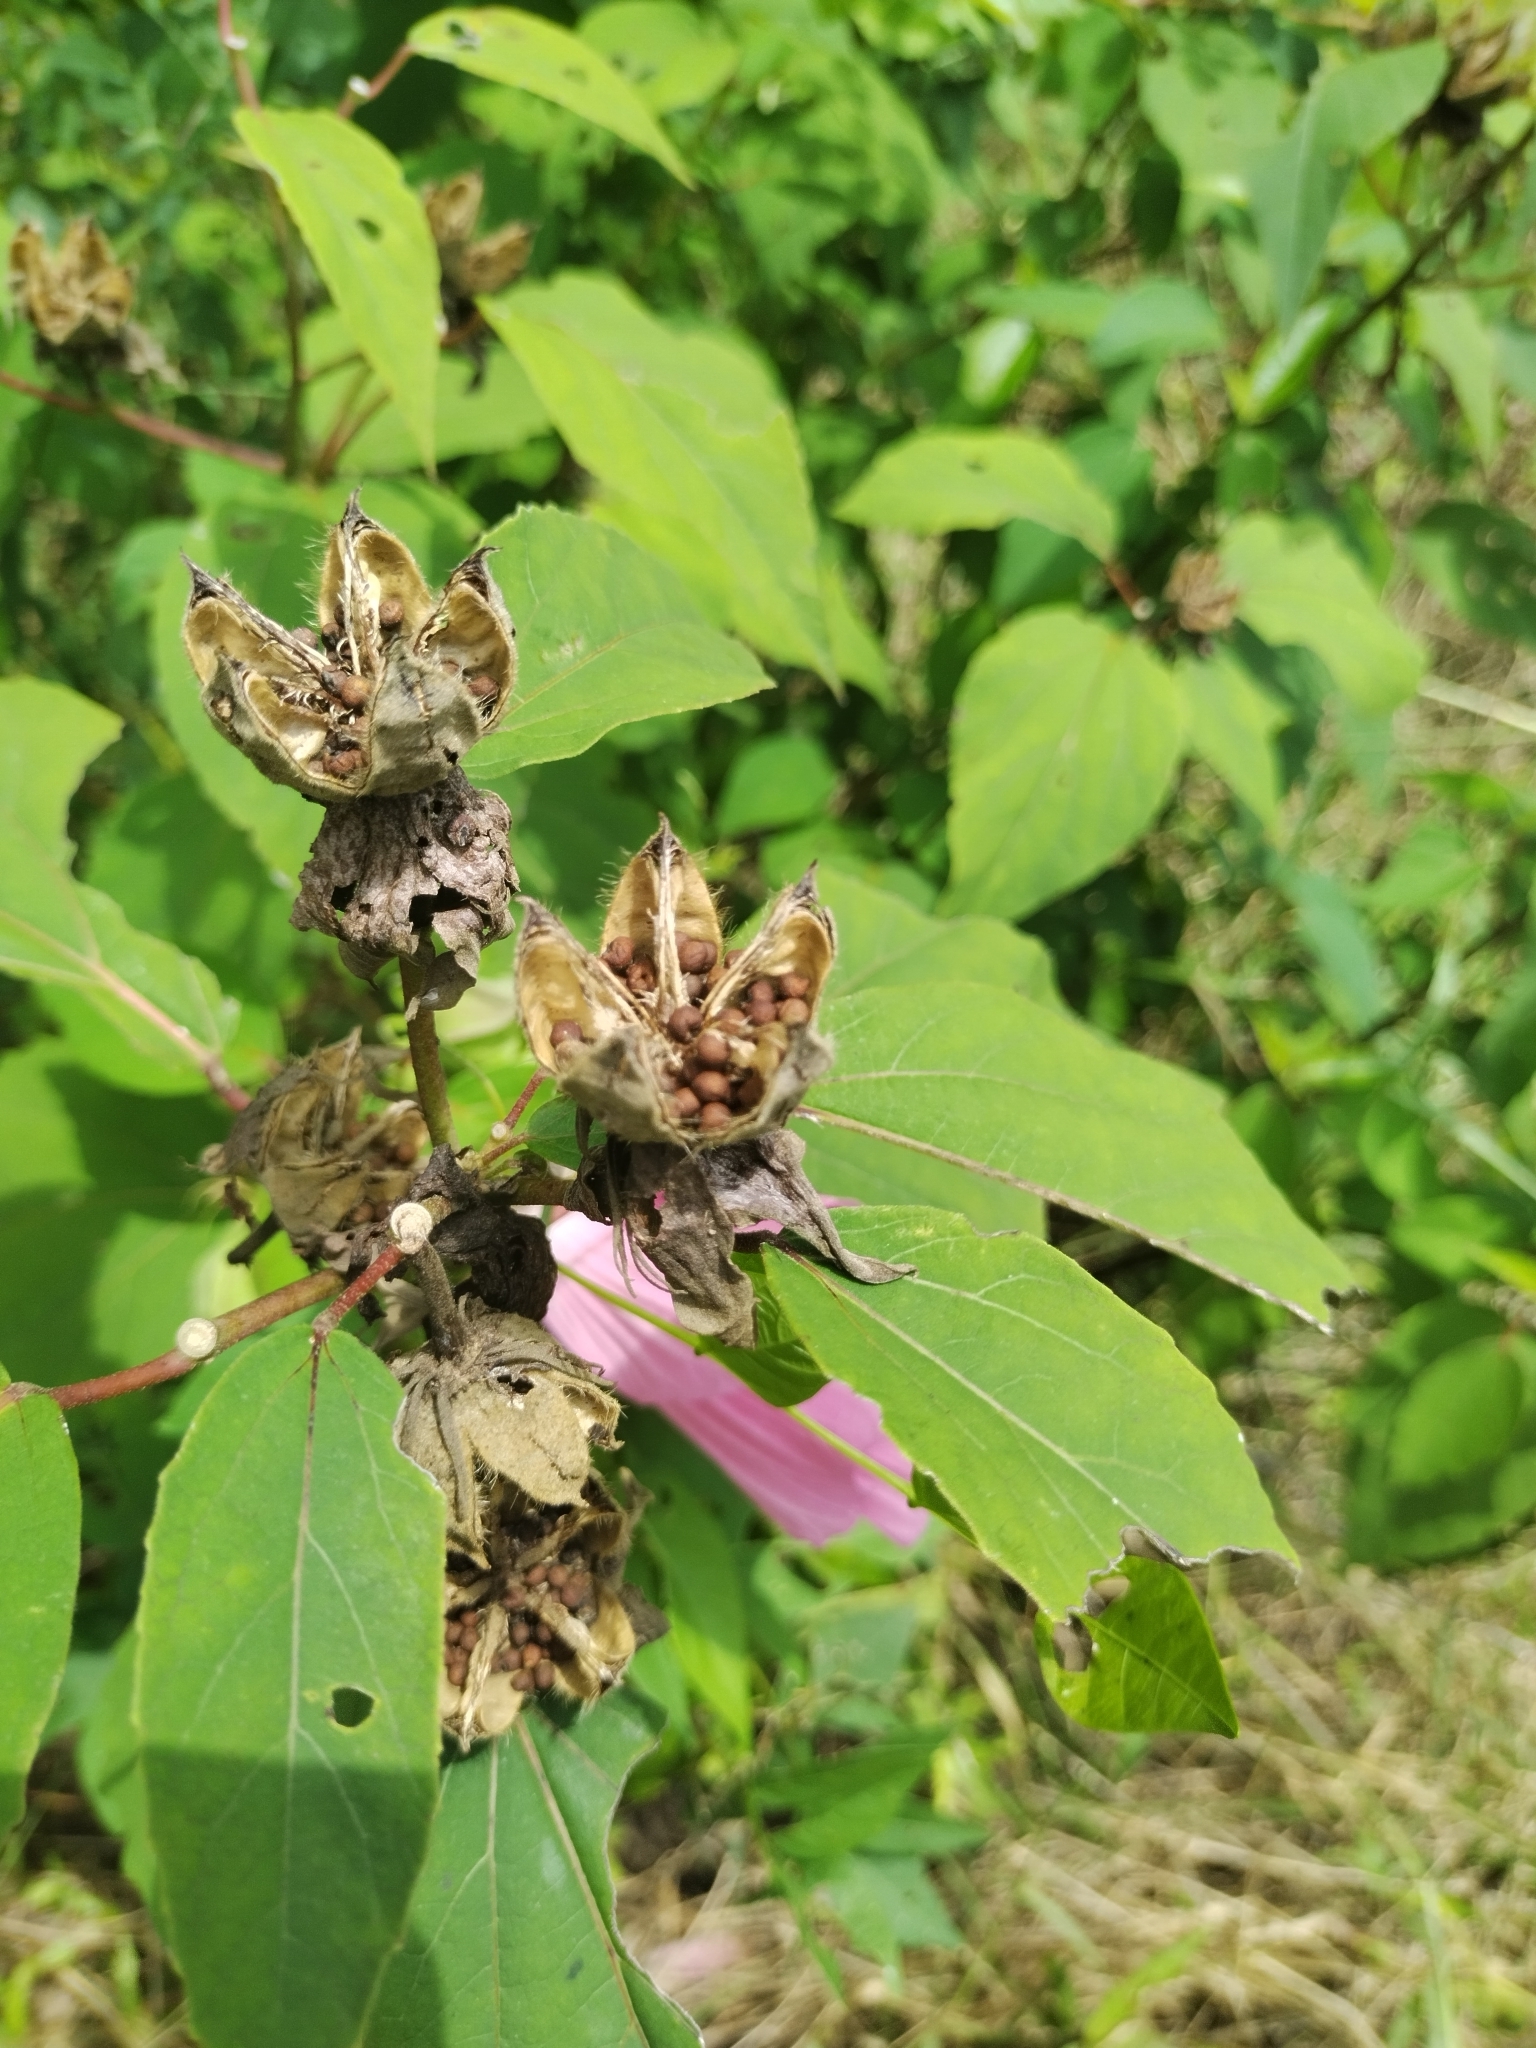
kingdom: Plantae
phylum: Tracheophyta
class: Magnoliopsida
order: Malvales
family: Malvaceae
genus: Hibiscus
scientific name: Hibiscus moscheutos
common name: Common rose-mallow
